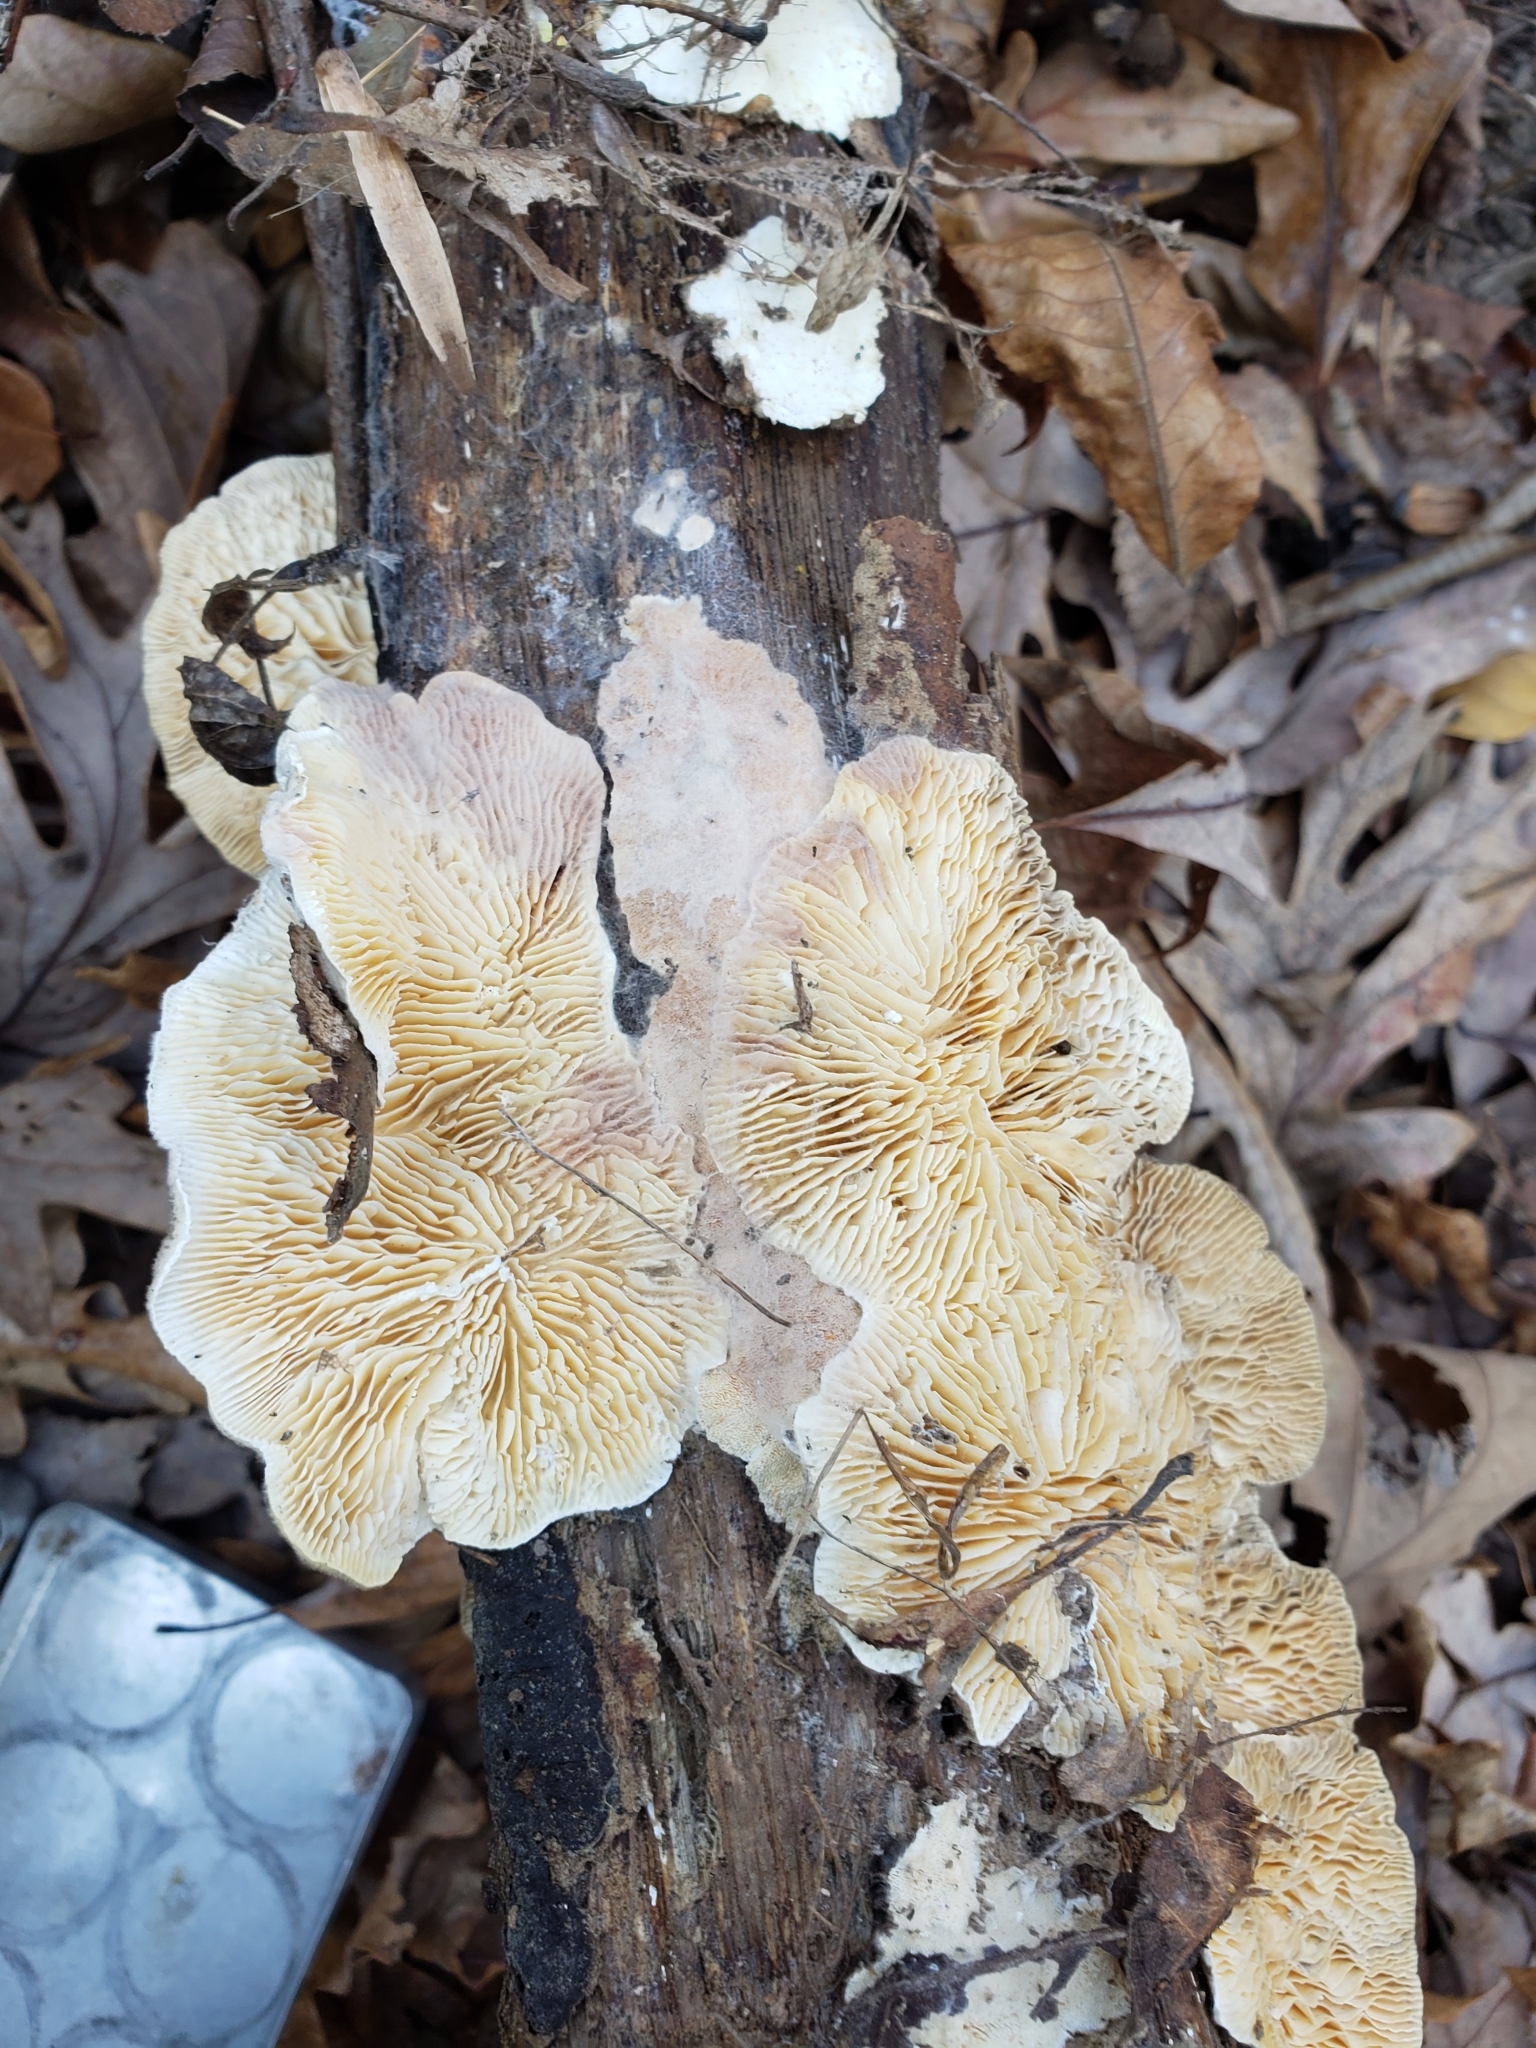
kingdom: Fungi
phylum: Basidiomycota
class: Agaricomycetes
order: Polyporales
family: Polyporaceae
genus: Lenzites
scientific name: Lenzites betulinus
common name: Birch mazegill
